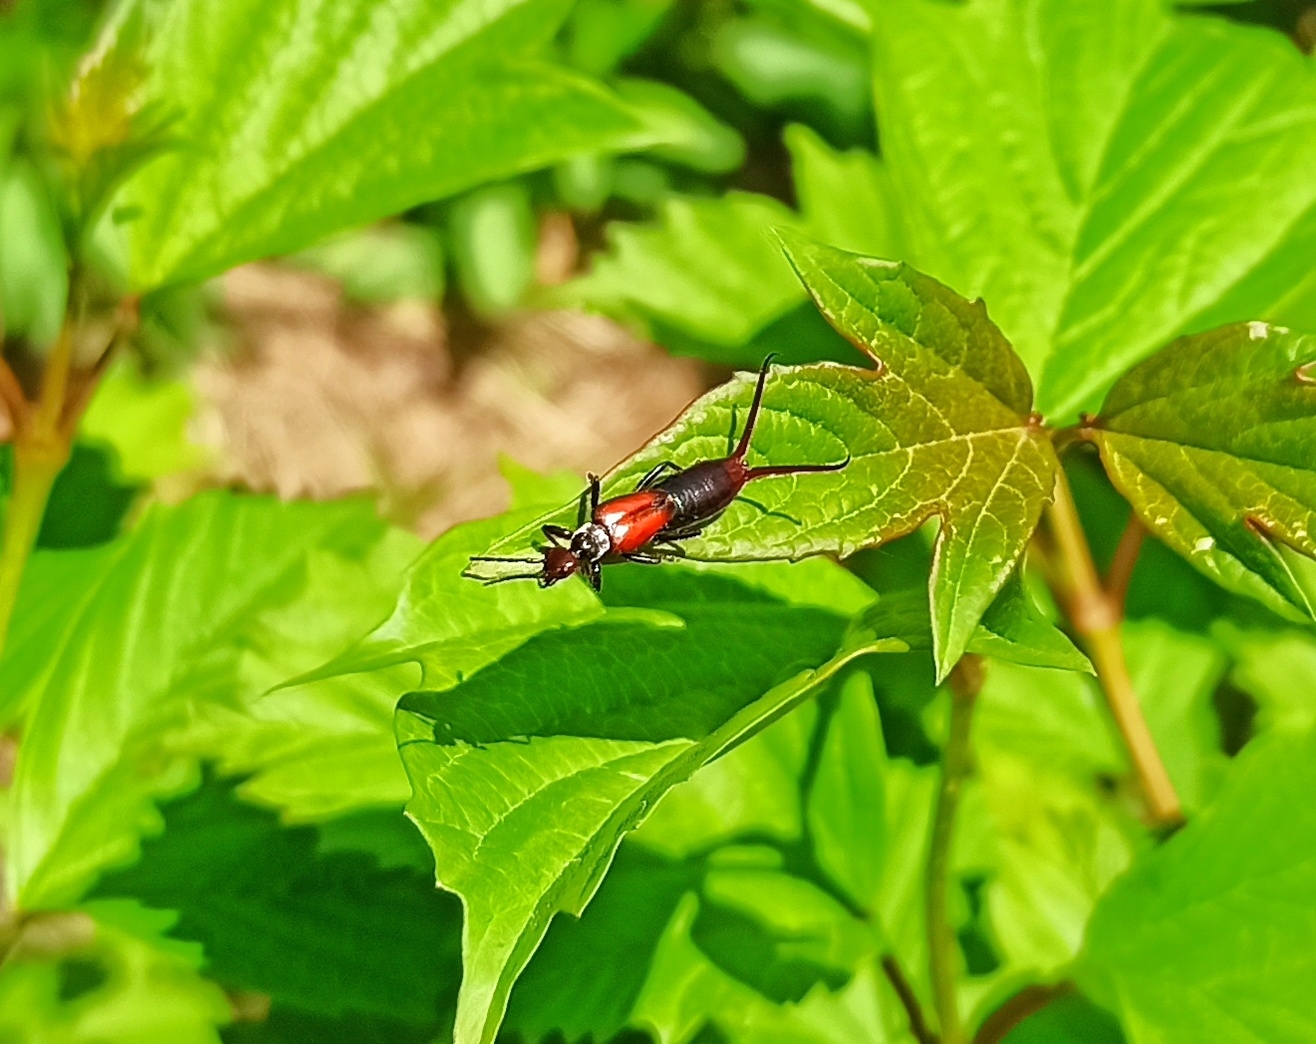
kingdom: Animalia
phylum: Arthropoda
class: Insecta
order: Dermaptera
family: Forficulidae
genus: Timomenus
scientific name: Timomenus komarovi
